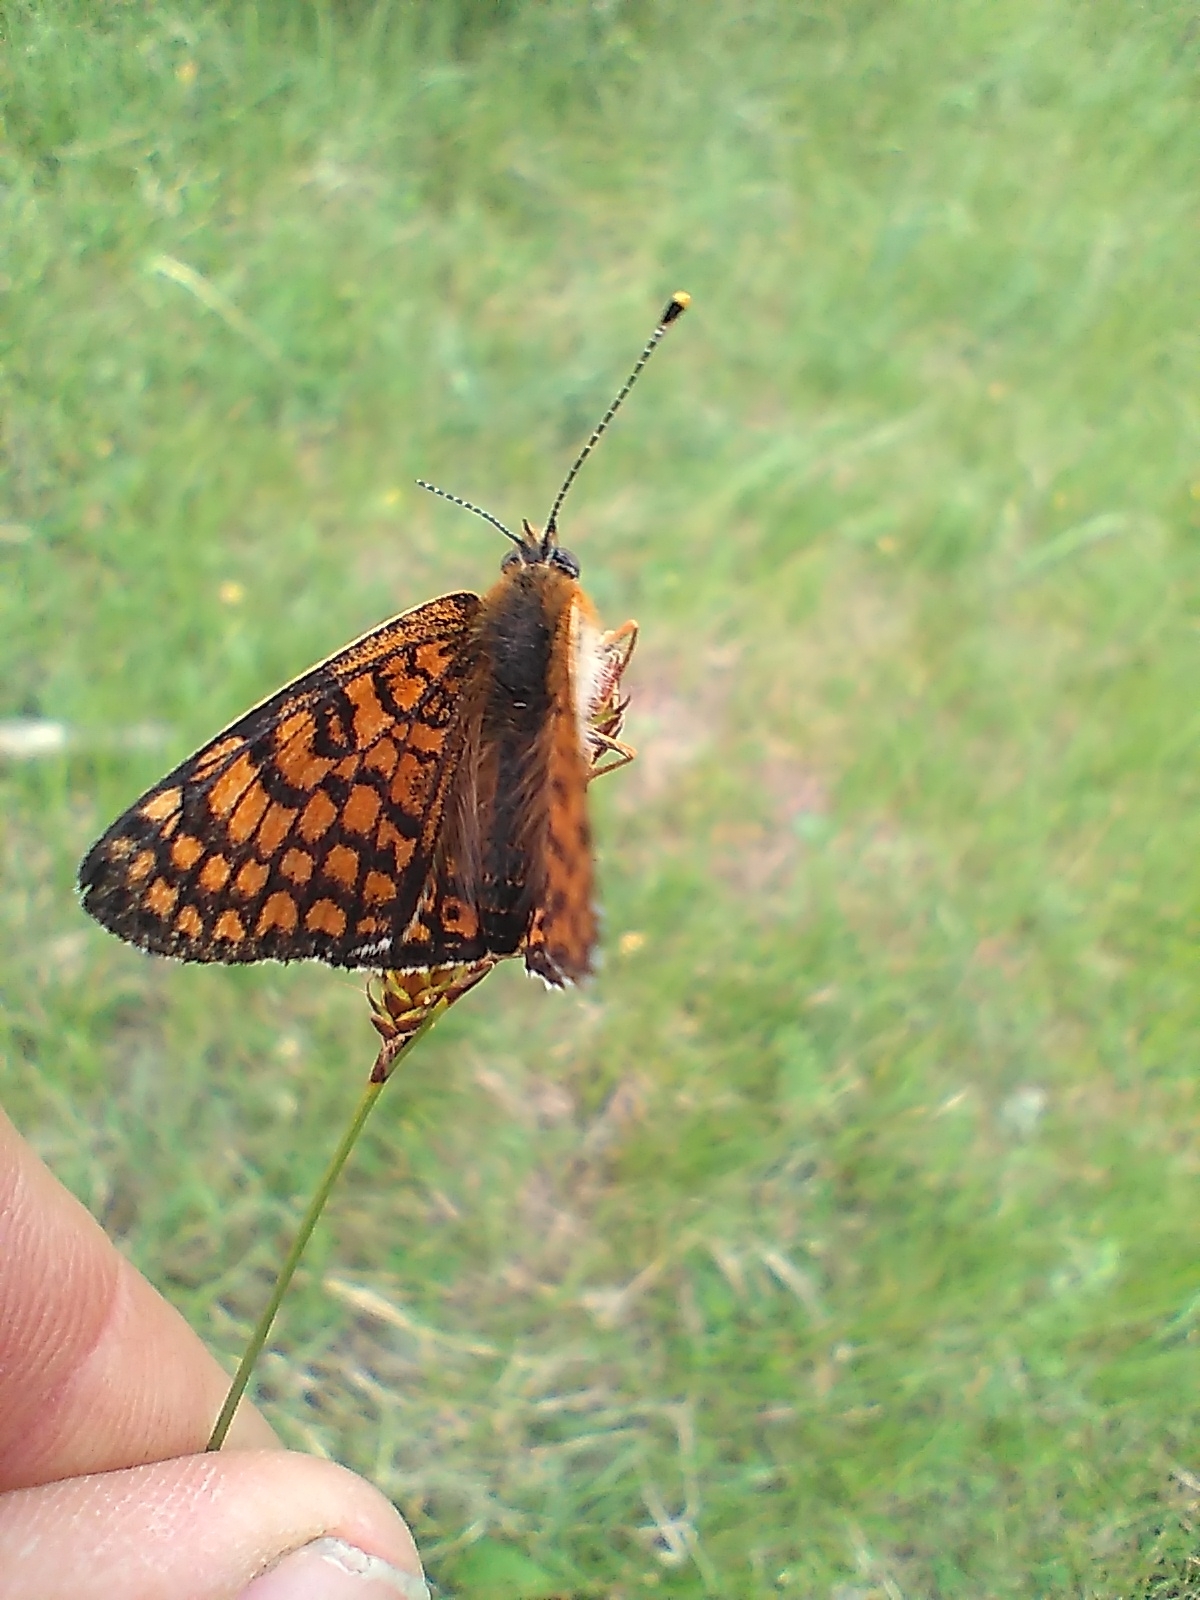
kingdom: Animalia
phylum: Arthropoda
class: Insecta
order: Lepidoptera
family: Nymphalidae
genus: Melitaea
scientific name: Melitaea cinxia
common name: Glanville fritillary
